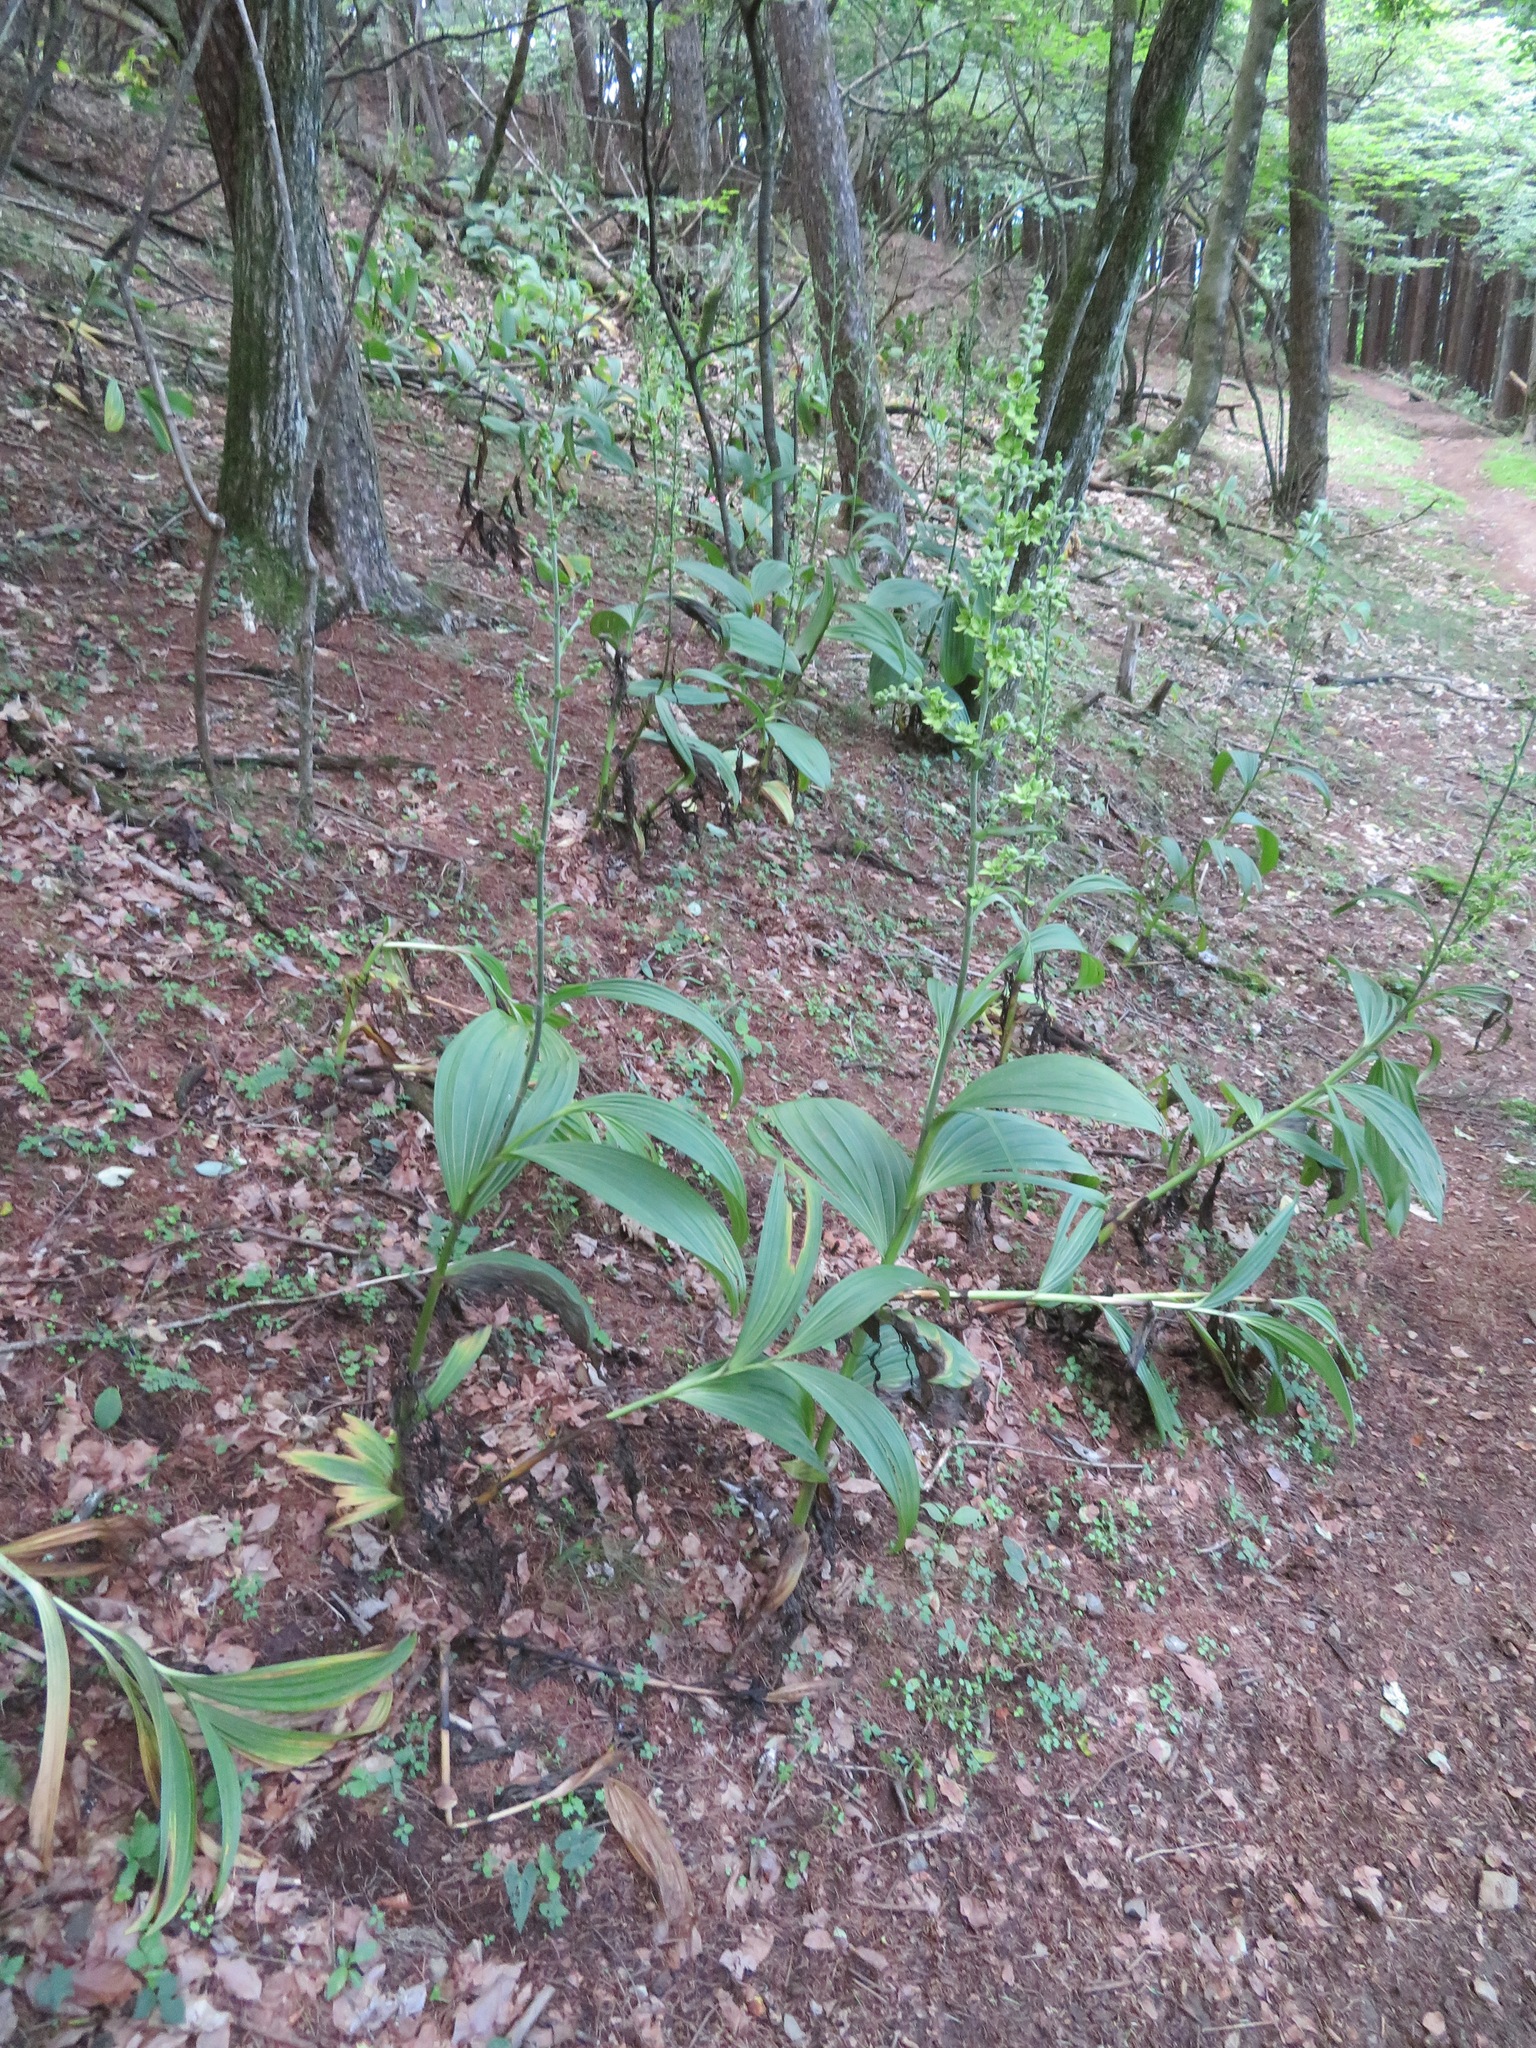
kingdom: Plantae
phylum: Tracheophyta
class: Liliopsida
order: Liliales
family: Melanthiaceae
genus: Veratrum
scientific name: Veratrum oxysepalum
